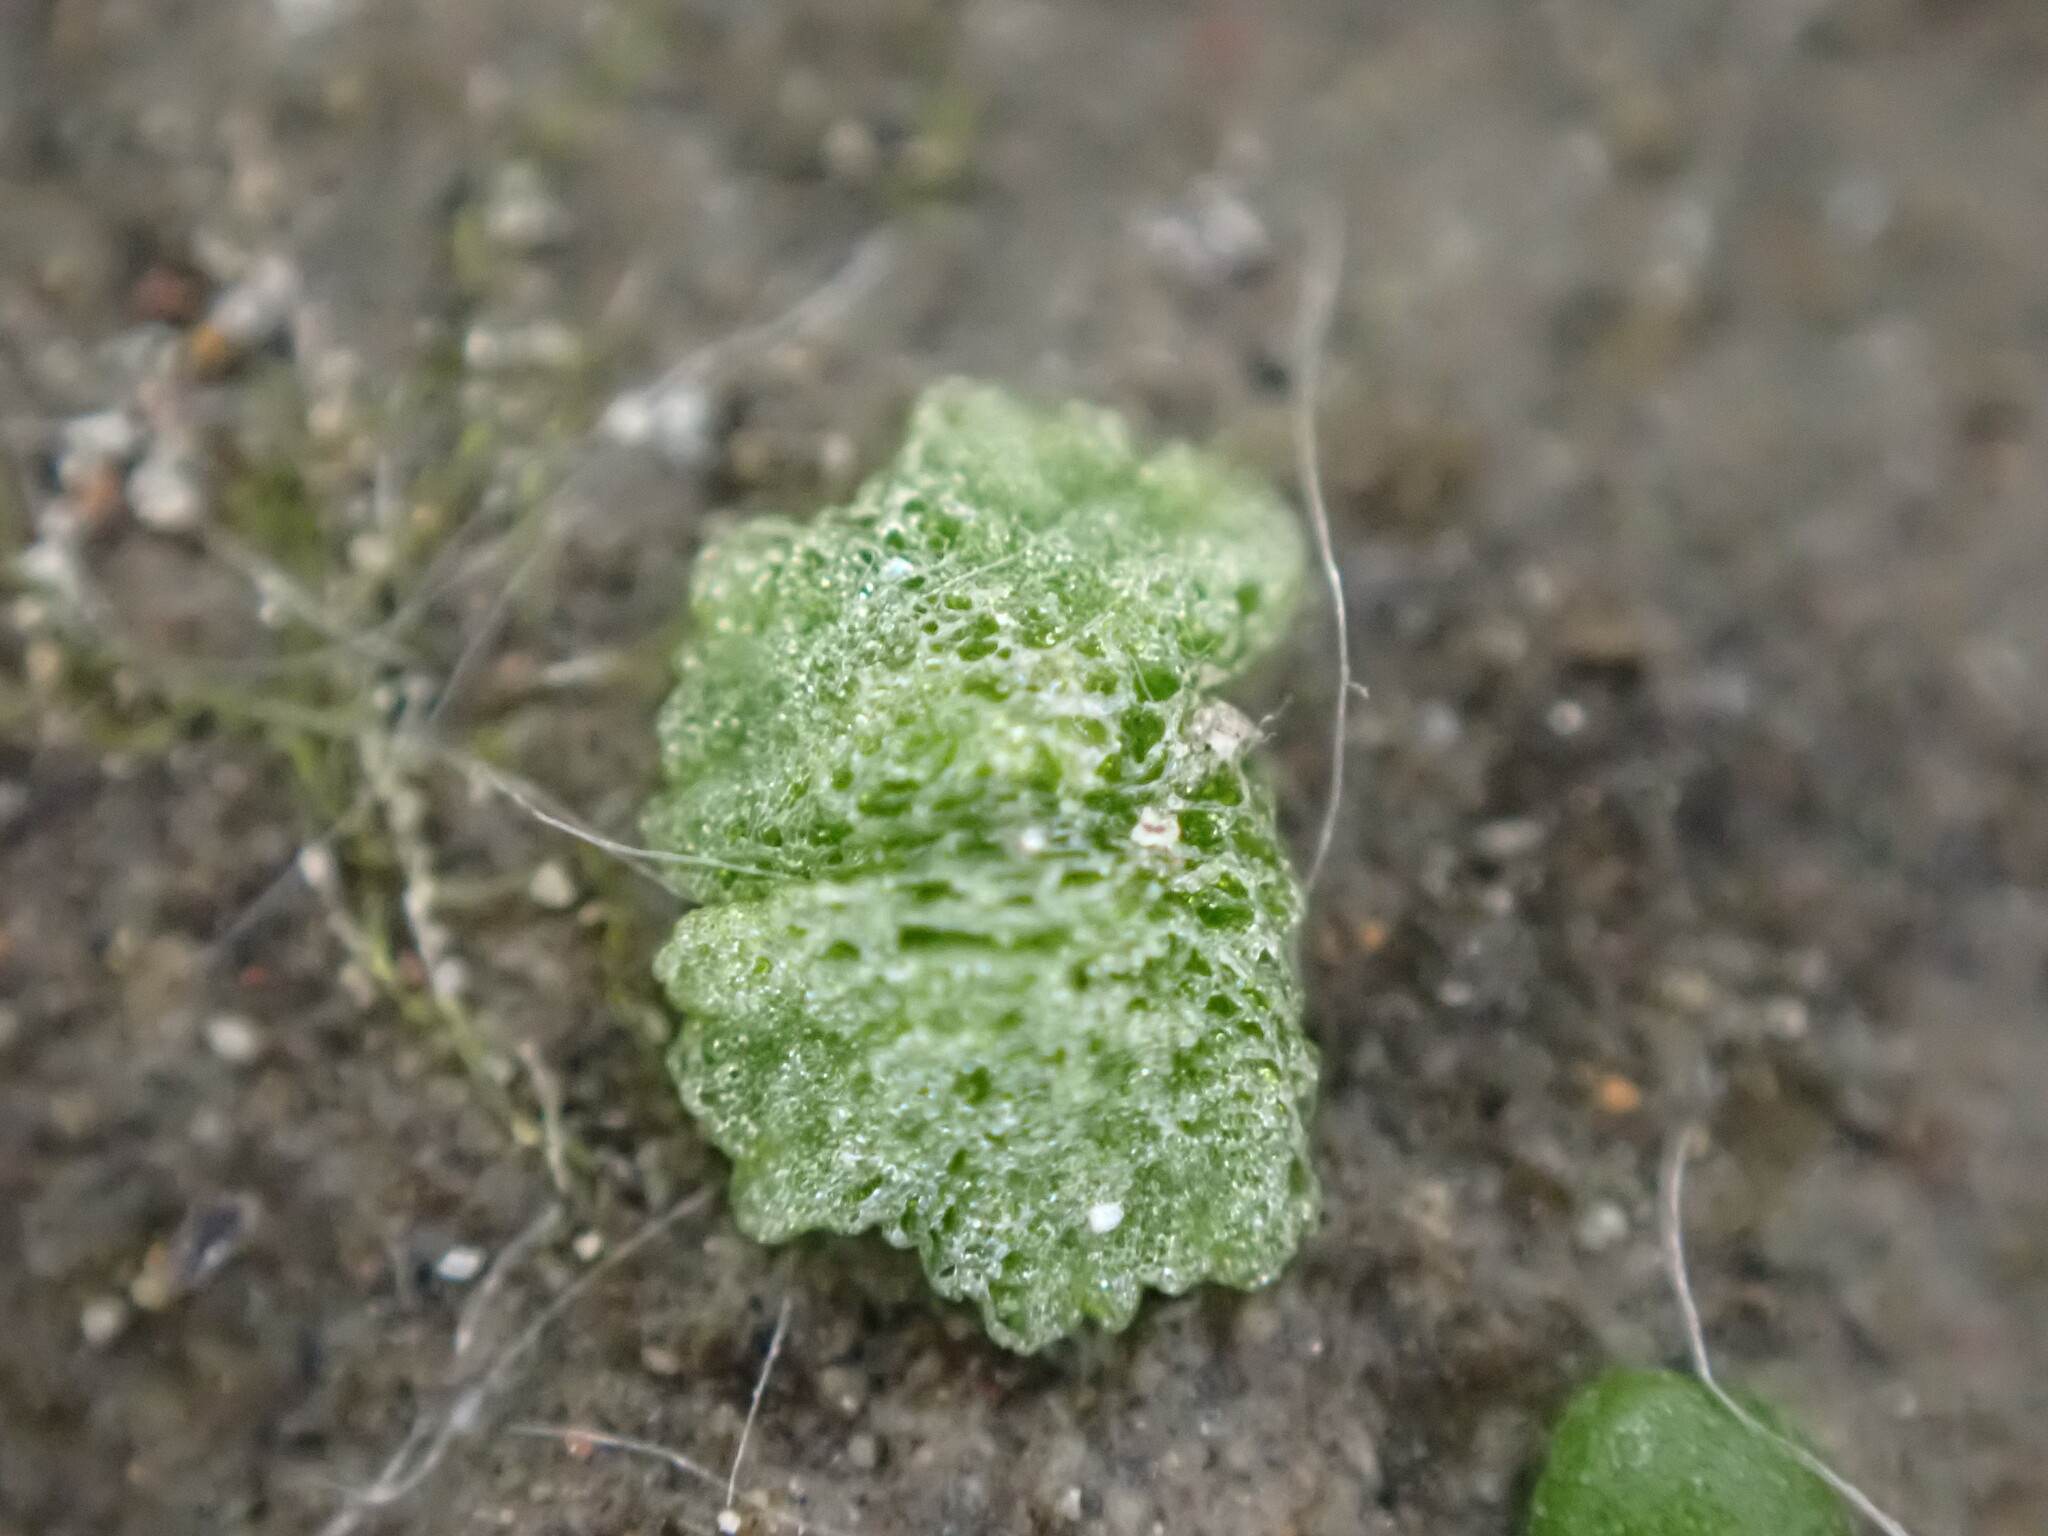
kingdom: Plantae
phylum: Marchantiophyta
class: Marchantiopsida
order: Marchantiales
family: Ricciaceae
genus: Riccia
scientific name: Riccia cavernosa
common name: Cavernous crystalwort
